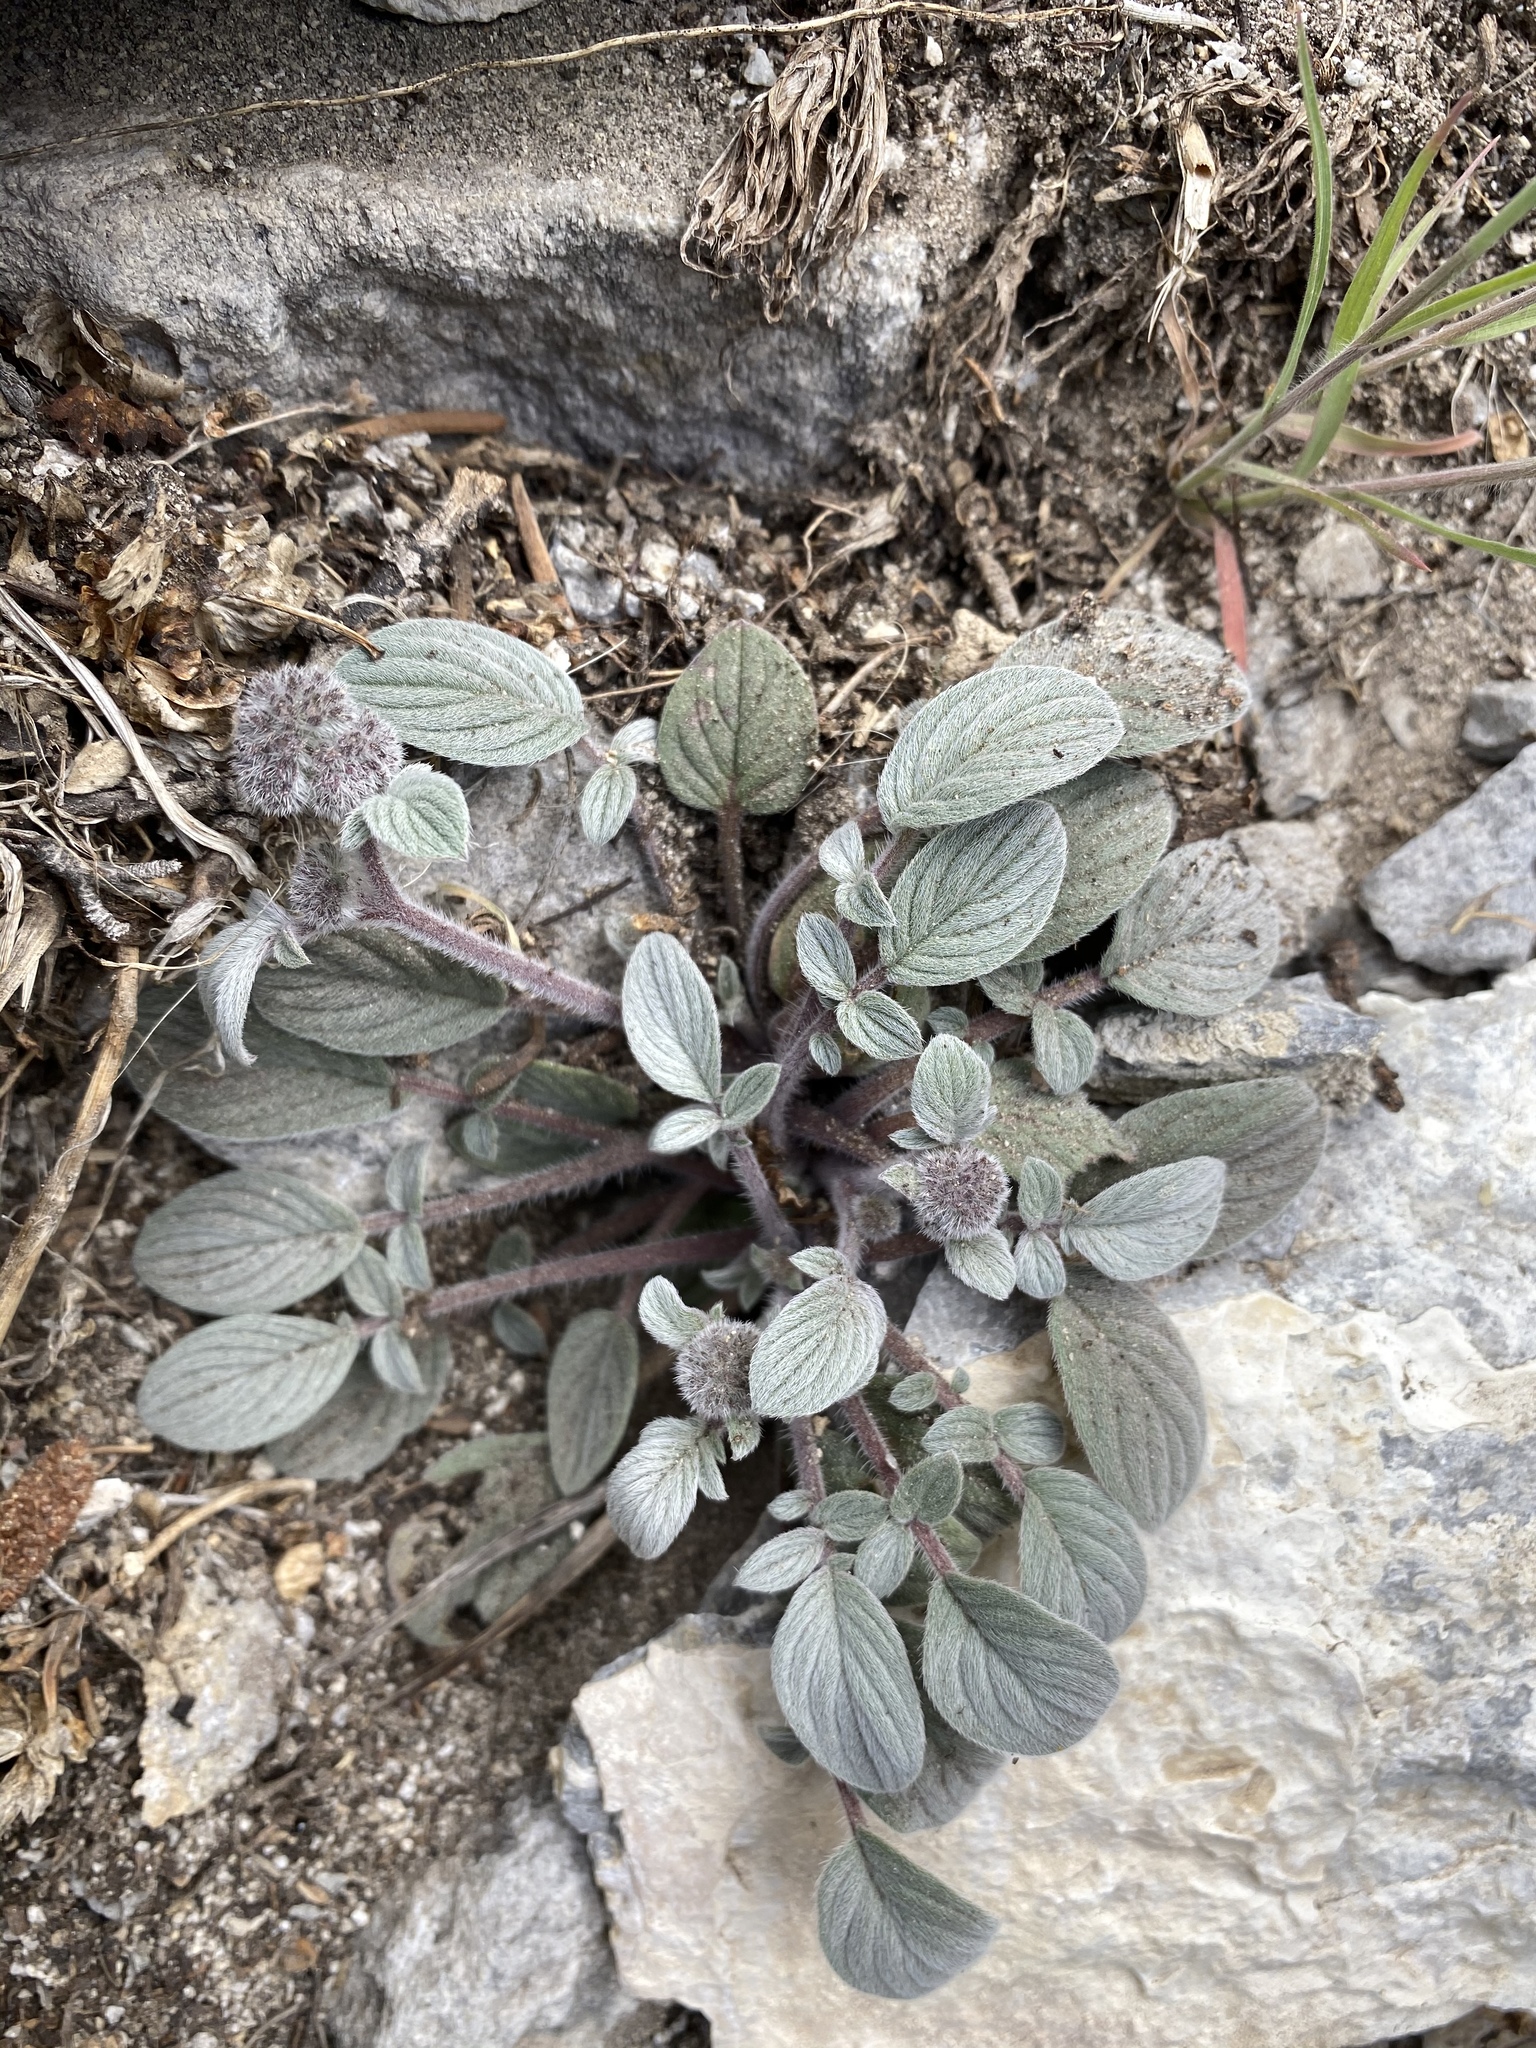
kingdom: Plantae
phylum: Tracheophyta
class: Magnoliopsida
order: Boraginales
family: Hydrophyllaceae
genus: Phacelia
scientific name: Phacelia hastata
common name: Silver-leaved phacelia
